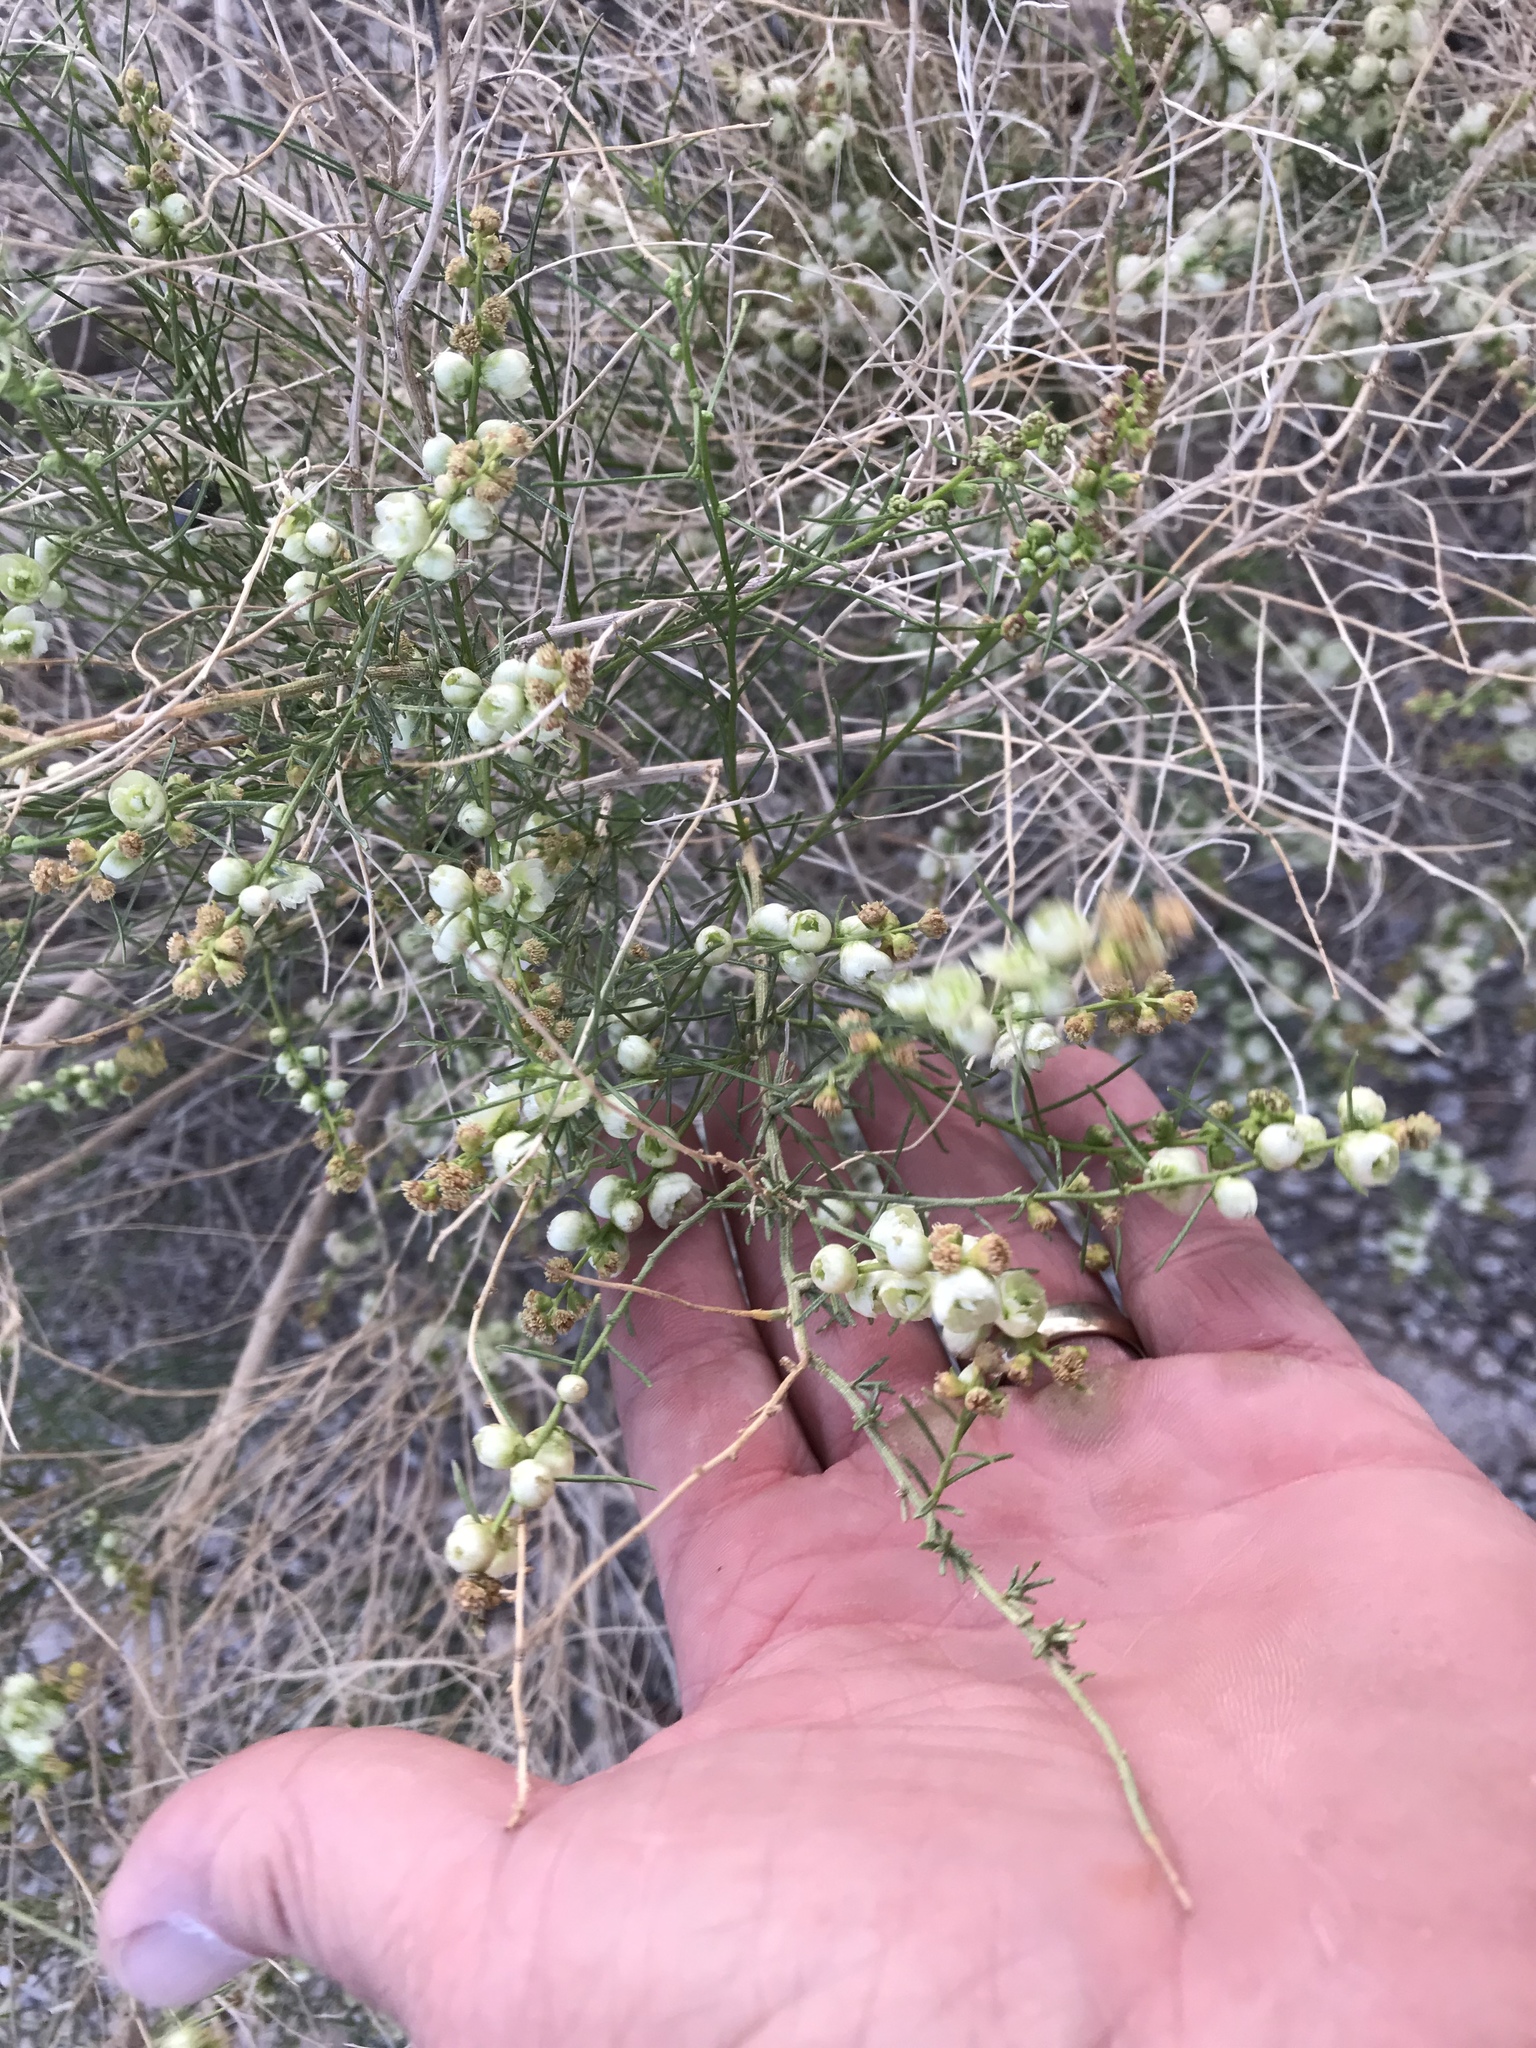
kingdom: Plantae
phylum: Tracheophyta
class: Magnoliopsida
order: Asterales
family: Asteraceae
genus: Ambrosia
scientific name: Ambrosia salsola
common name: Burrobrush
